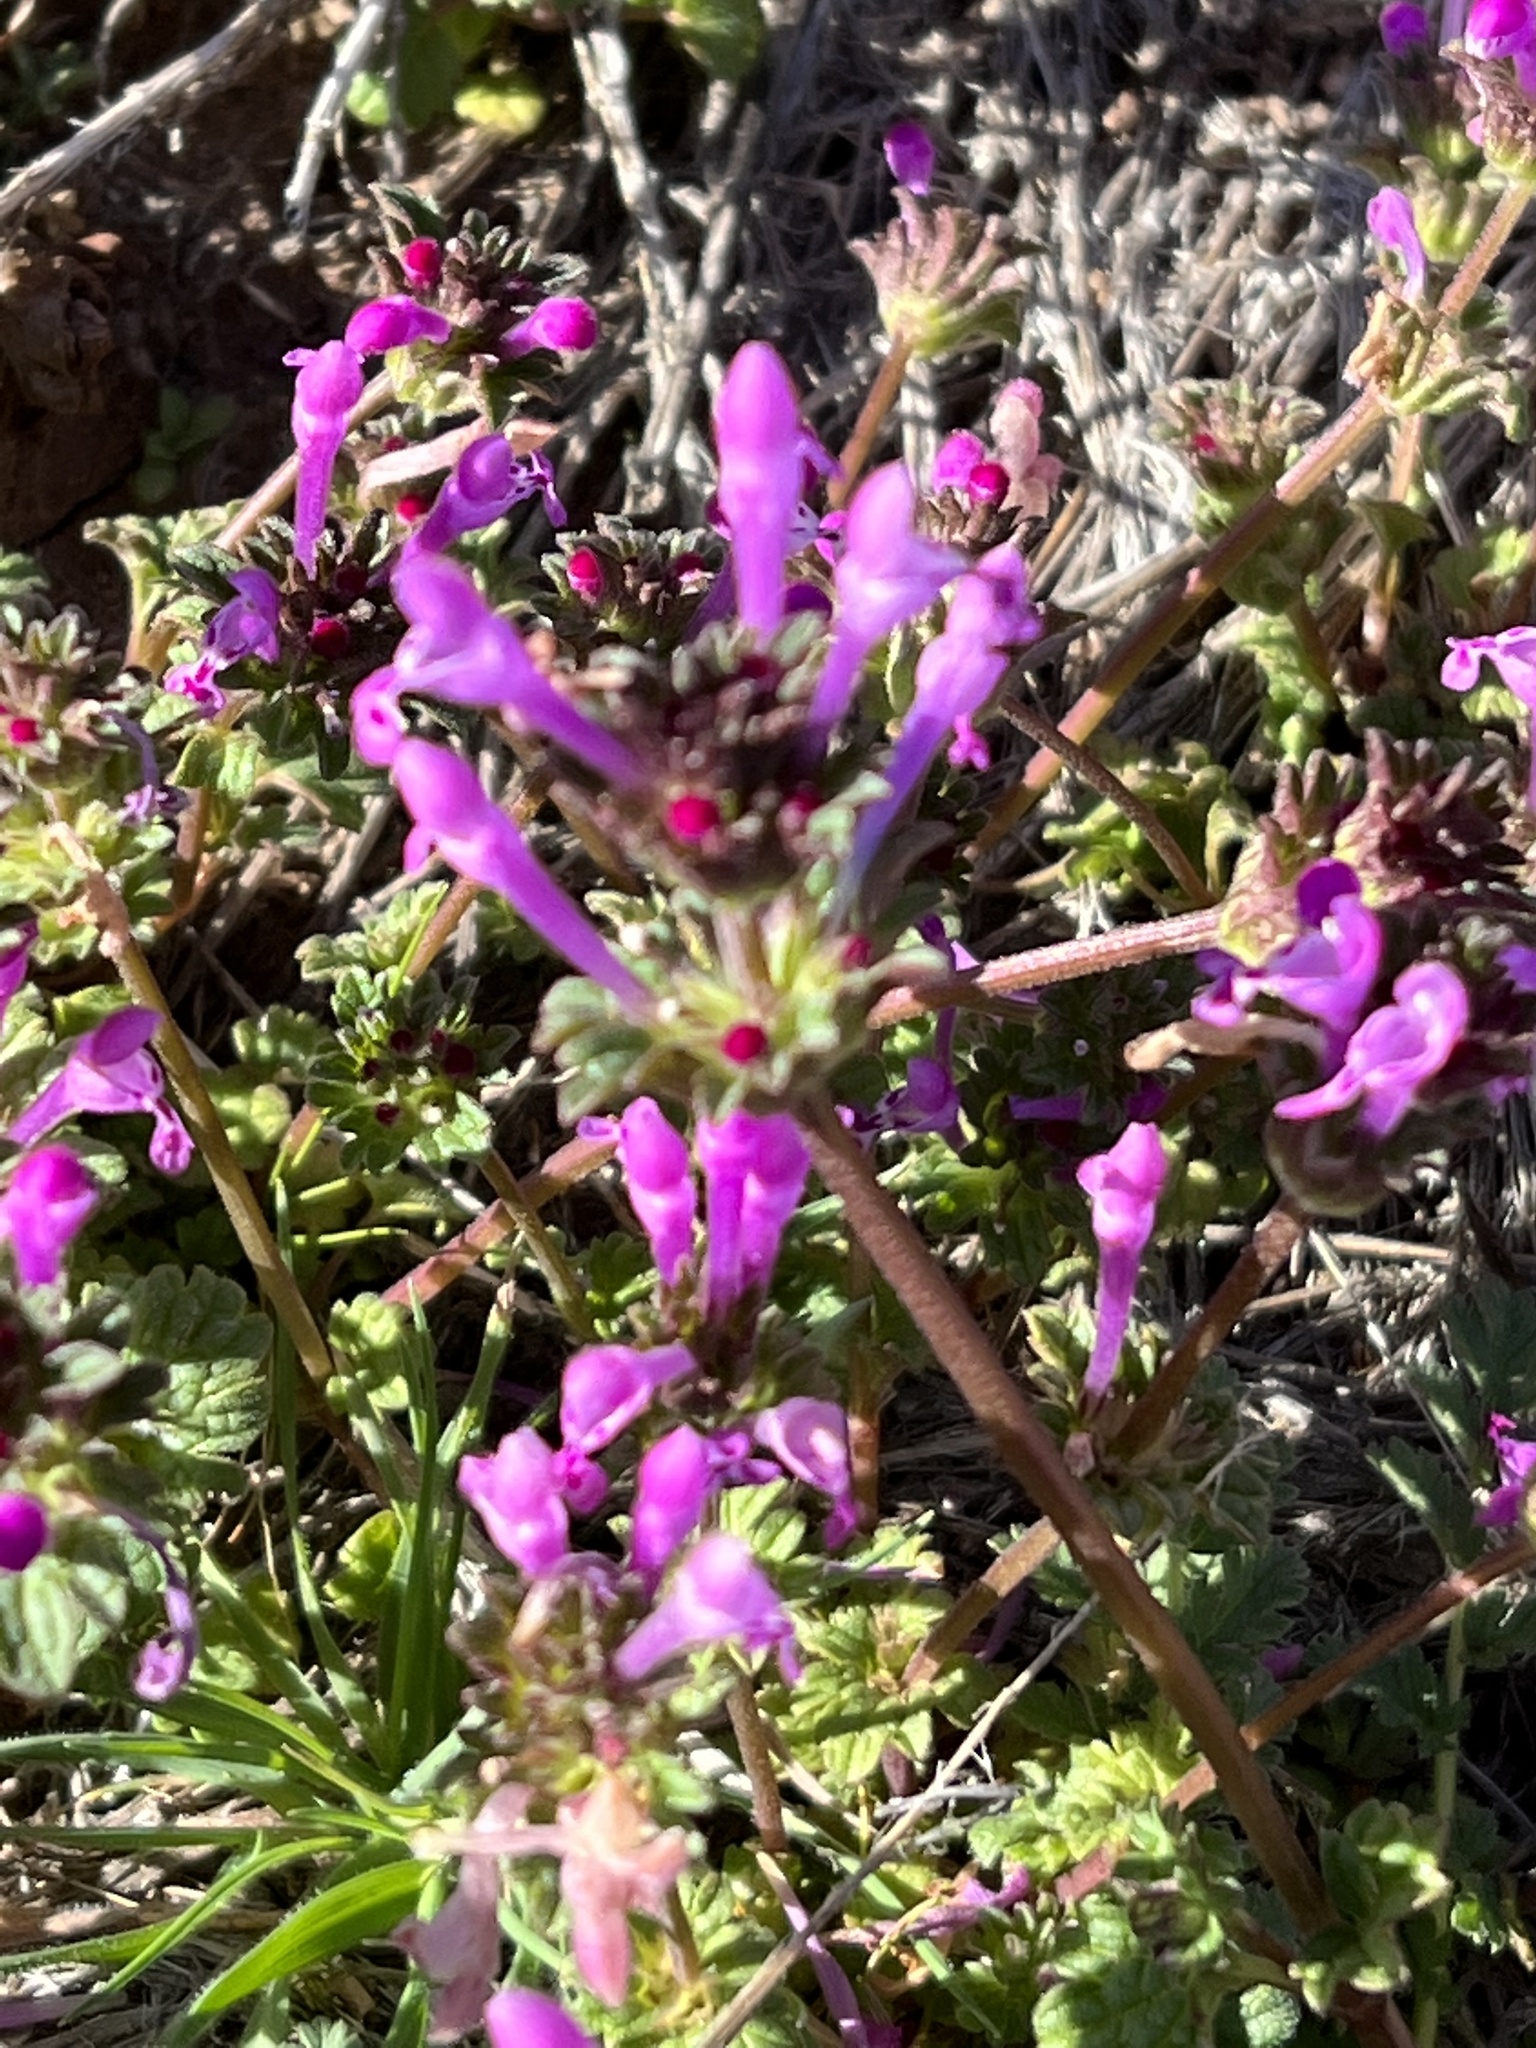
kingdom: Plantae
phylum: Tracheophyta
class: Magnoliopsida
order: Lamiales
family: Lamiaceae
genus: Lamium
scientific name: Lamium amplexicaule
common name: Henbit dead-nettle
